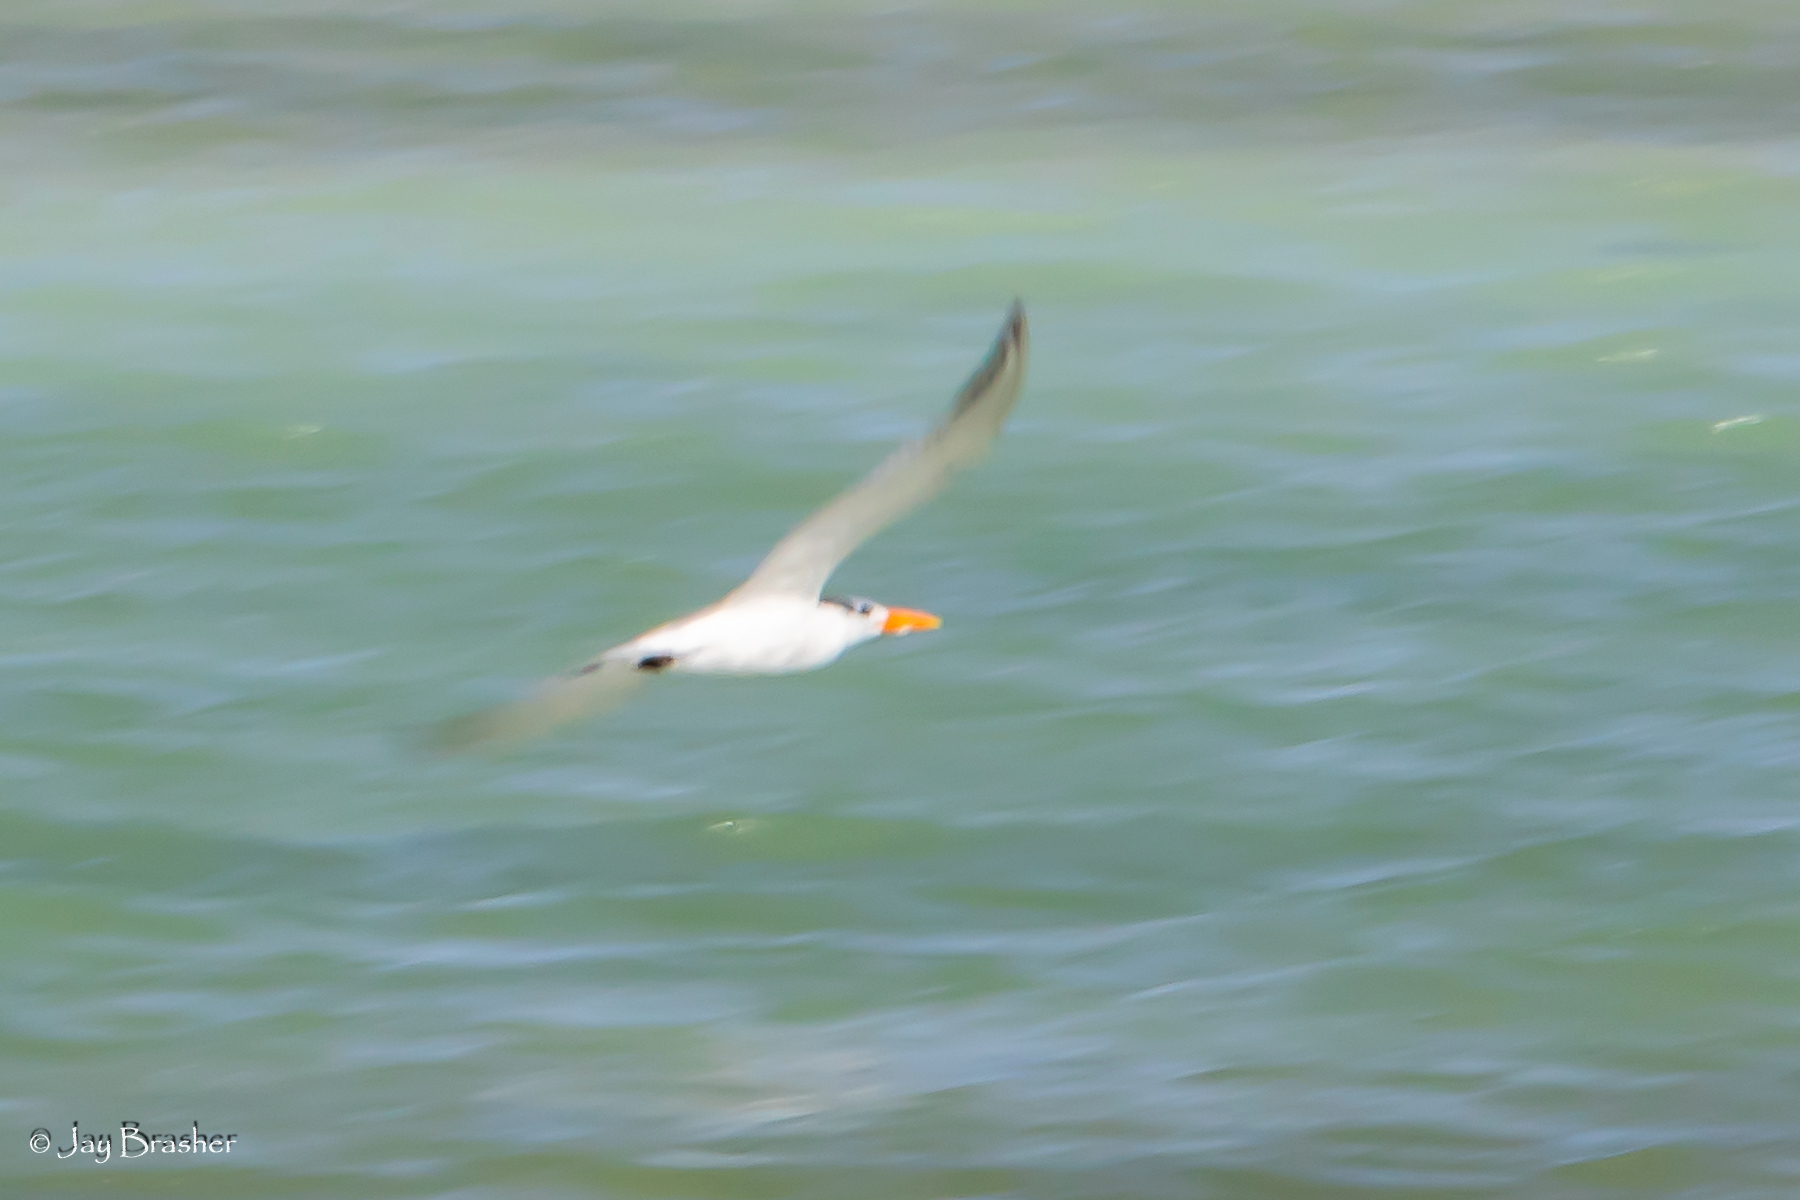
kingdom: Animalia
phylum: Chordata
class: Aves
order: Charadriiformes
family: Laridae
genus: Thalasseus
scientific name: Thalasseus maximus
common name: Royal tern
